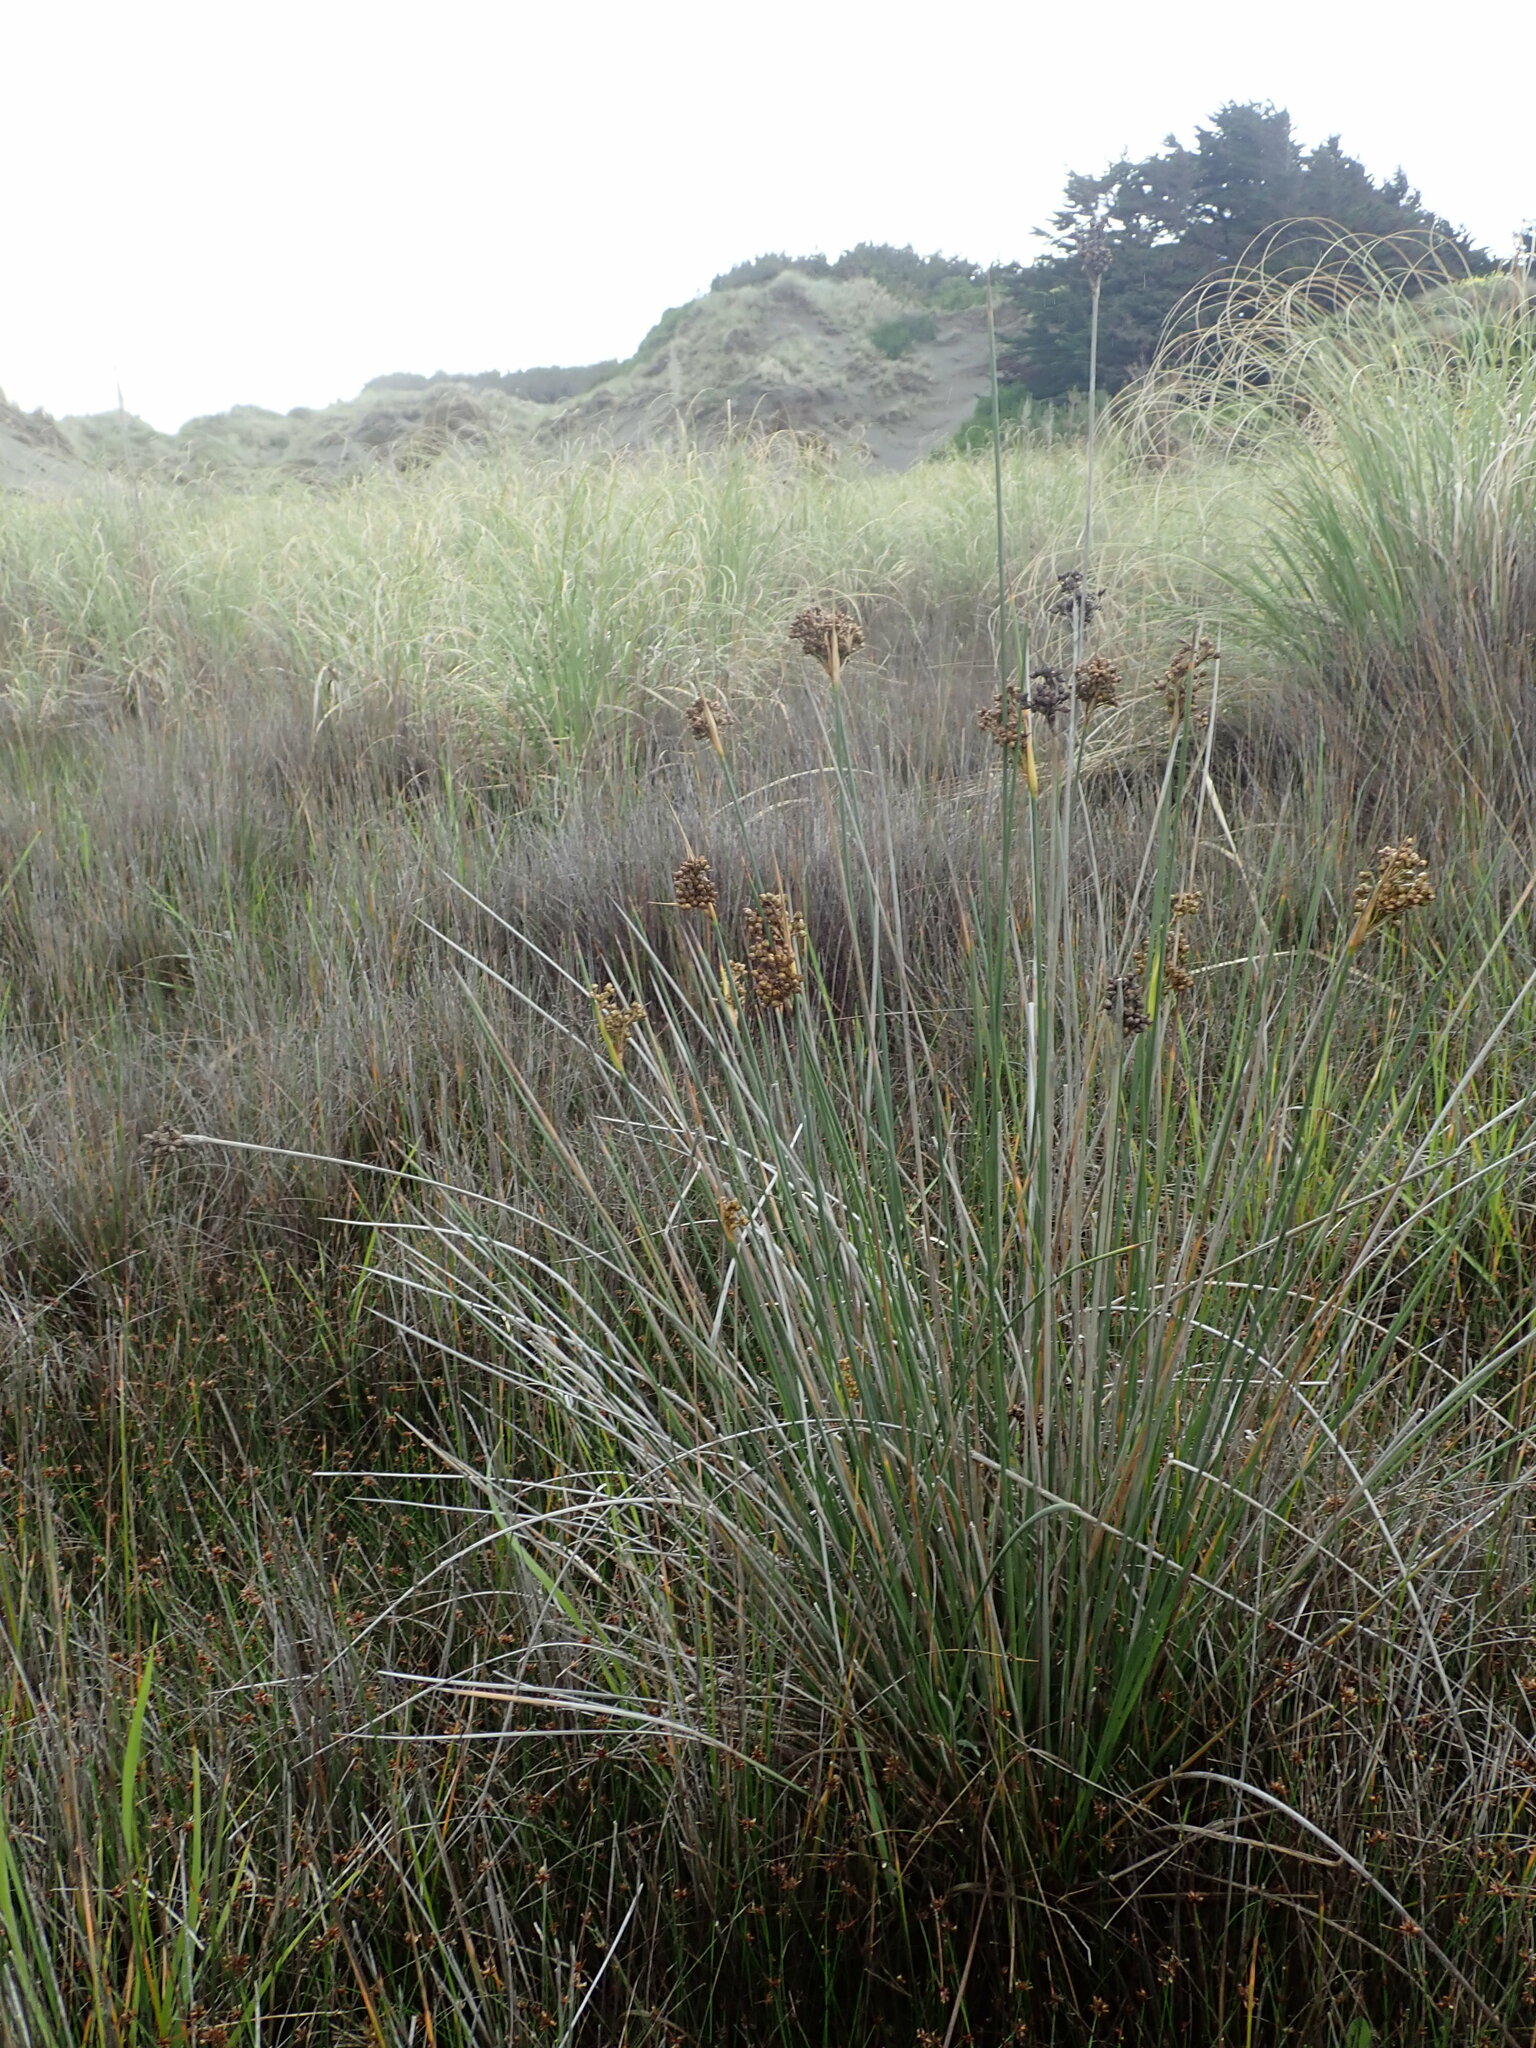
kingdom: Plantae
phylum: Tracheophyta
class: Liliopsida
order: Poales
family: Juncaceae
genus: Juncus
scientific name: Juncus acutus
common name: Sharp rush
